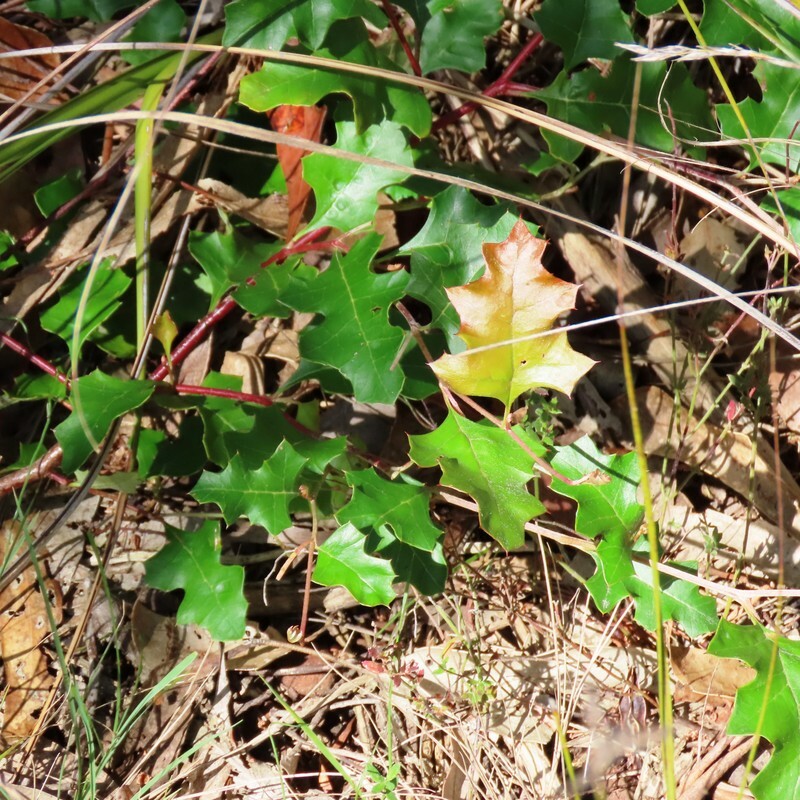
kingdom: Plantae
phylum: Tracheophyta
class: Magnoliopsida
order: Proteales
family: Proteaceae
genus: Grevillea
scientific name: Grevillea steiglitziana
